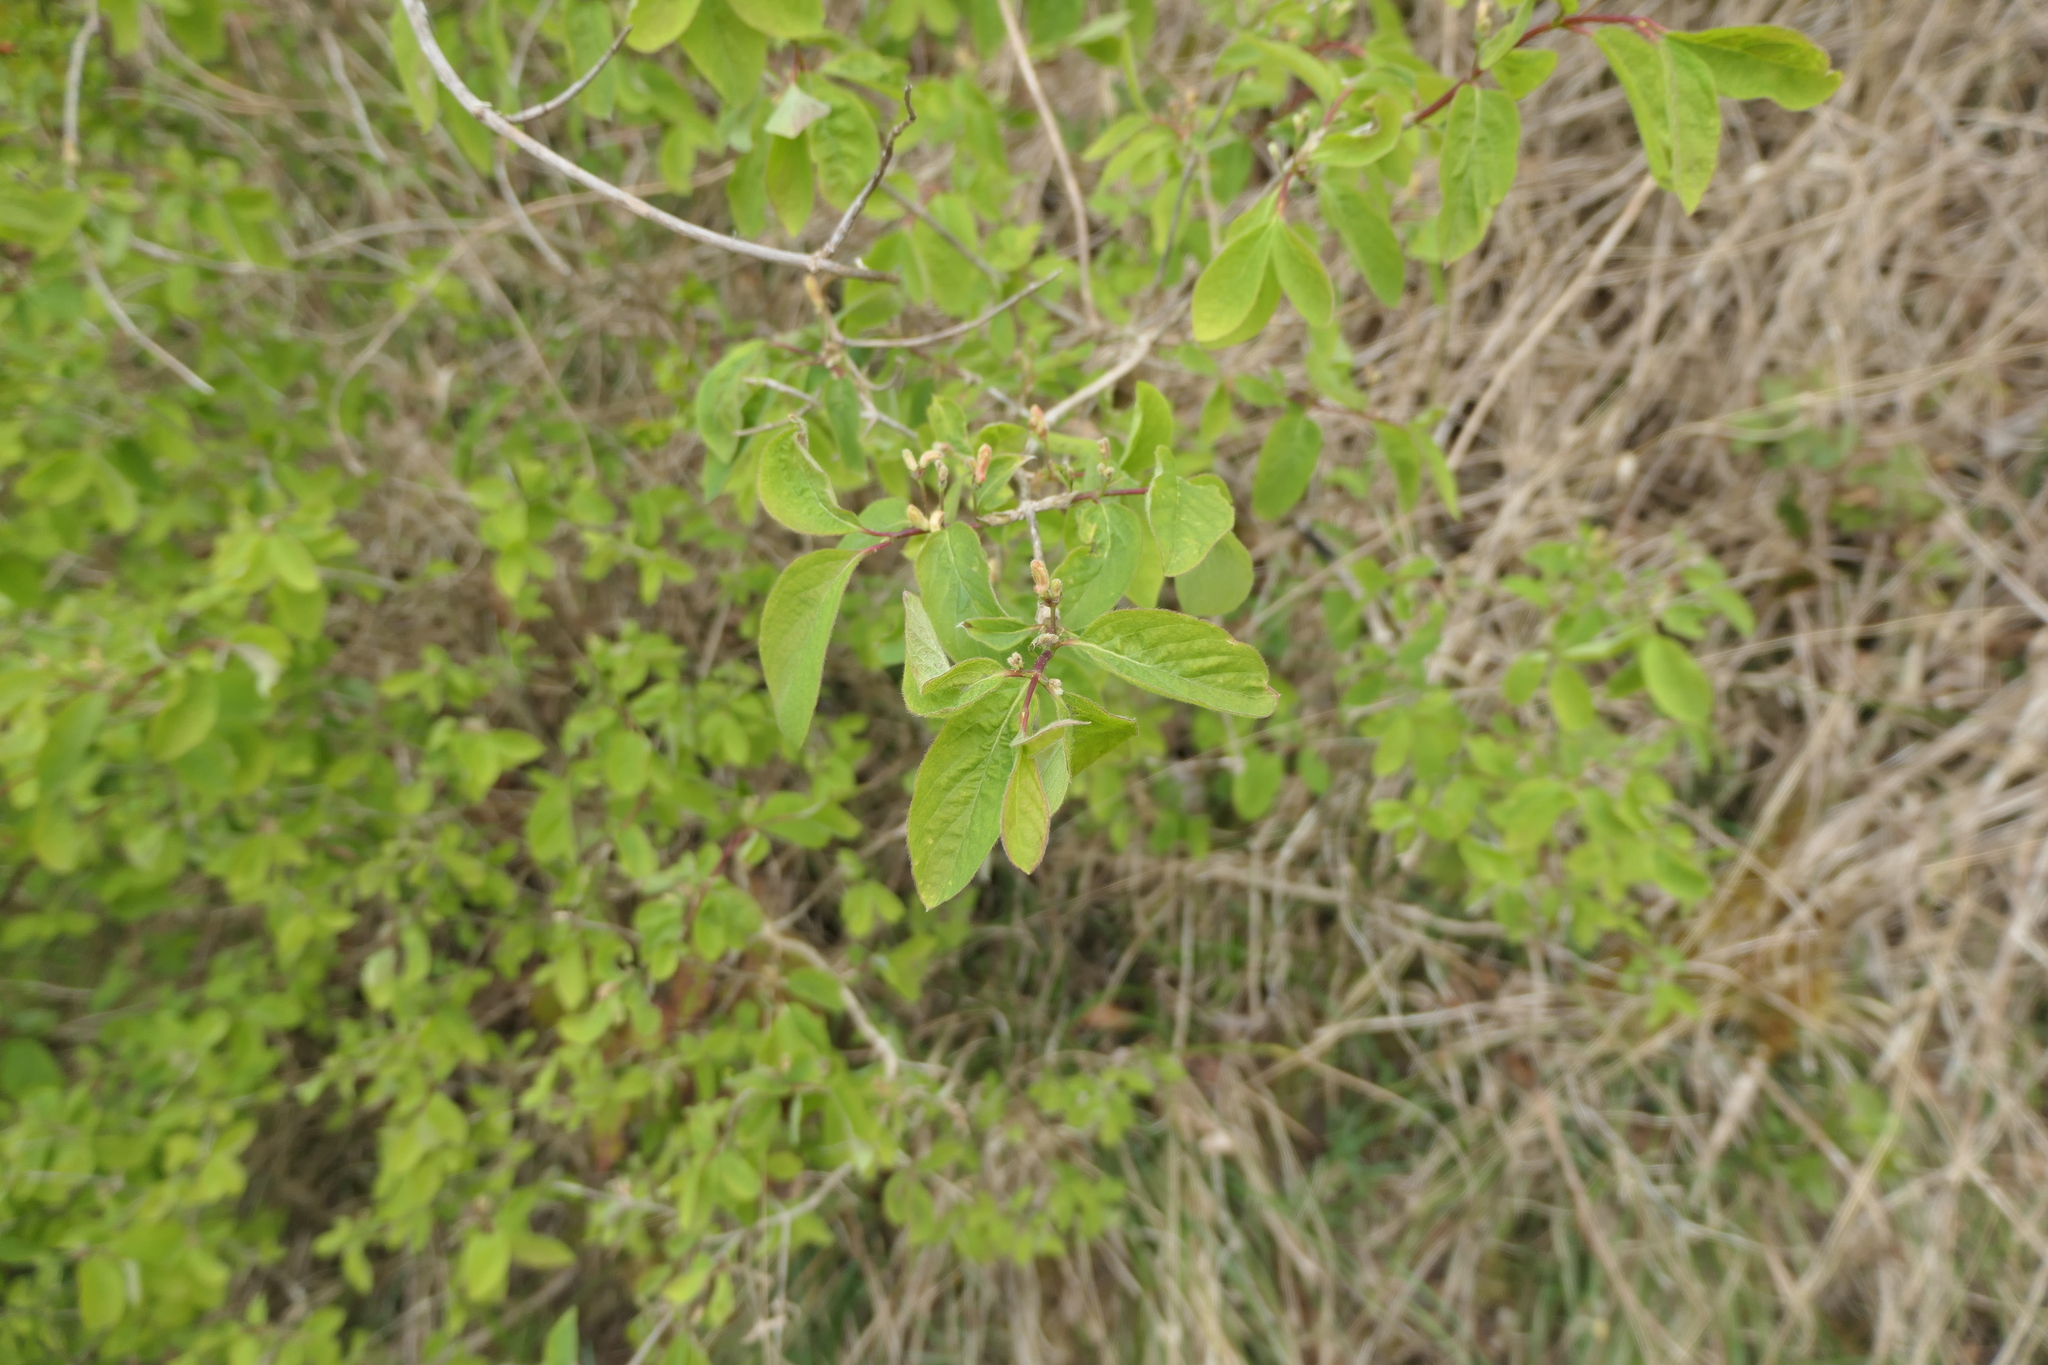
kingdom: Plantae
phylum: Tracheophyta
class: Magnoliopsida
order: Dipsacales
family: Caprifoliaceae
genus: Lonicera
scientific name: Lonicera xylosteum
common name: Fly honeysuckle
